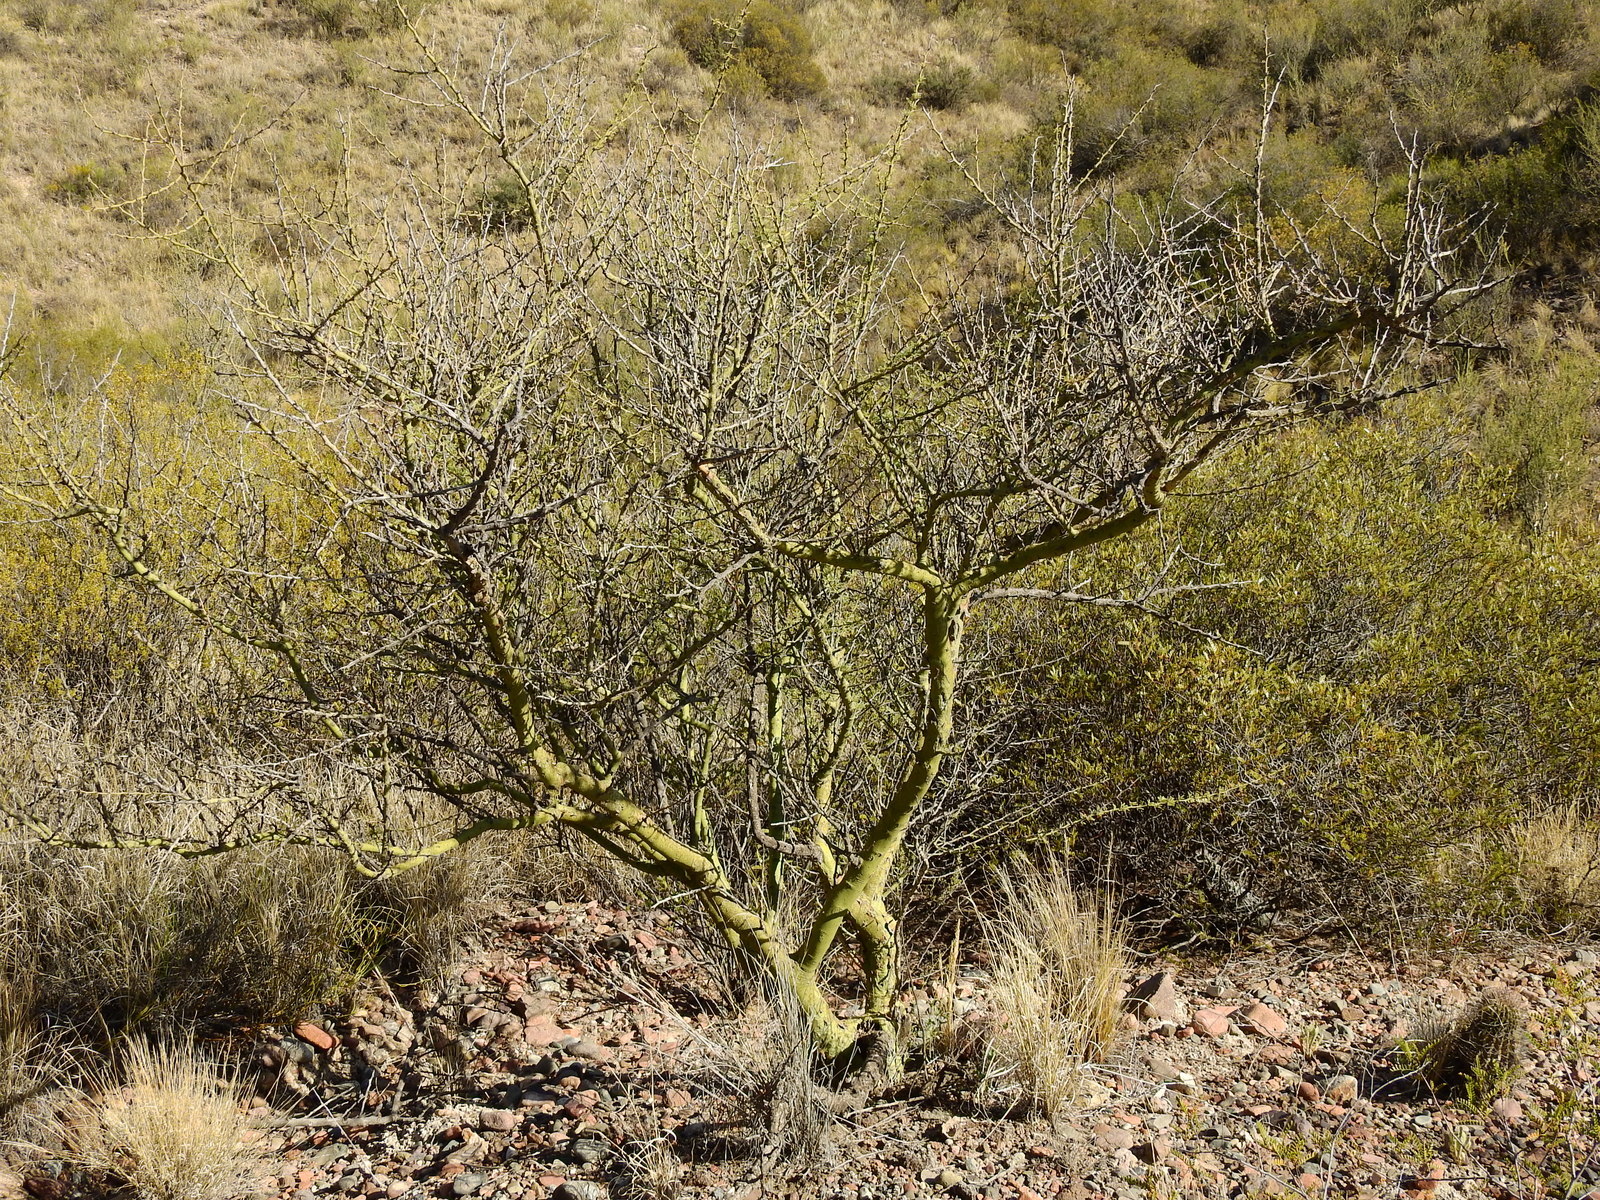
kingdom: Plantae
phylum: Tracheophyta
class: Magnoliopsida
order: Fabales
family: Fabaceae
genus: Parkinsonia
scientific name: Parkinsonia praecox
